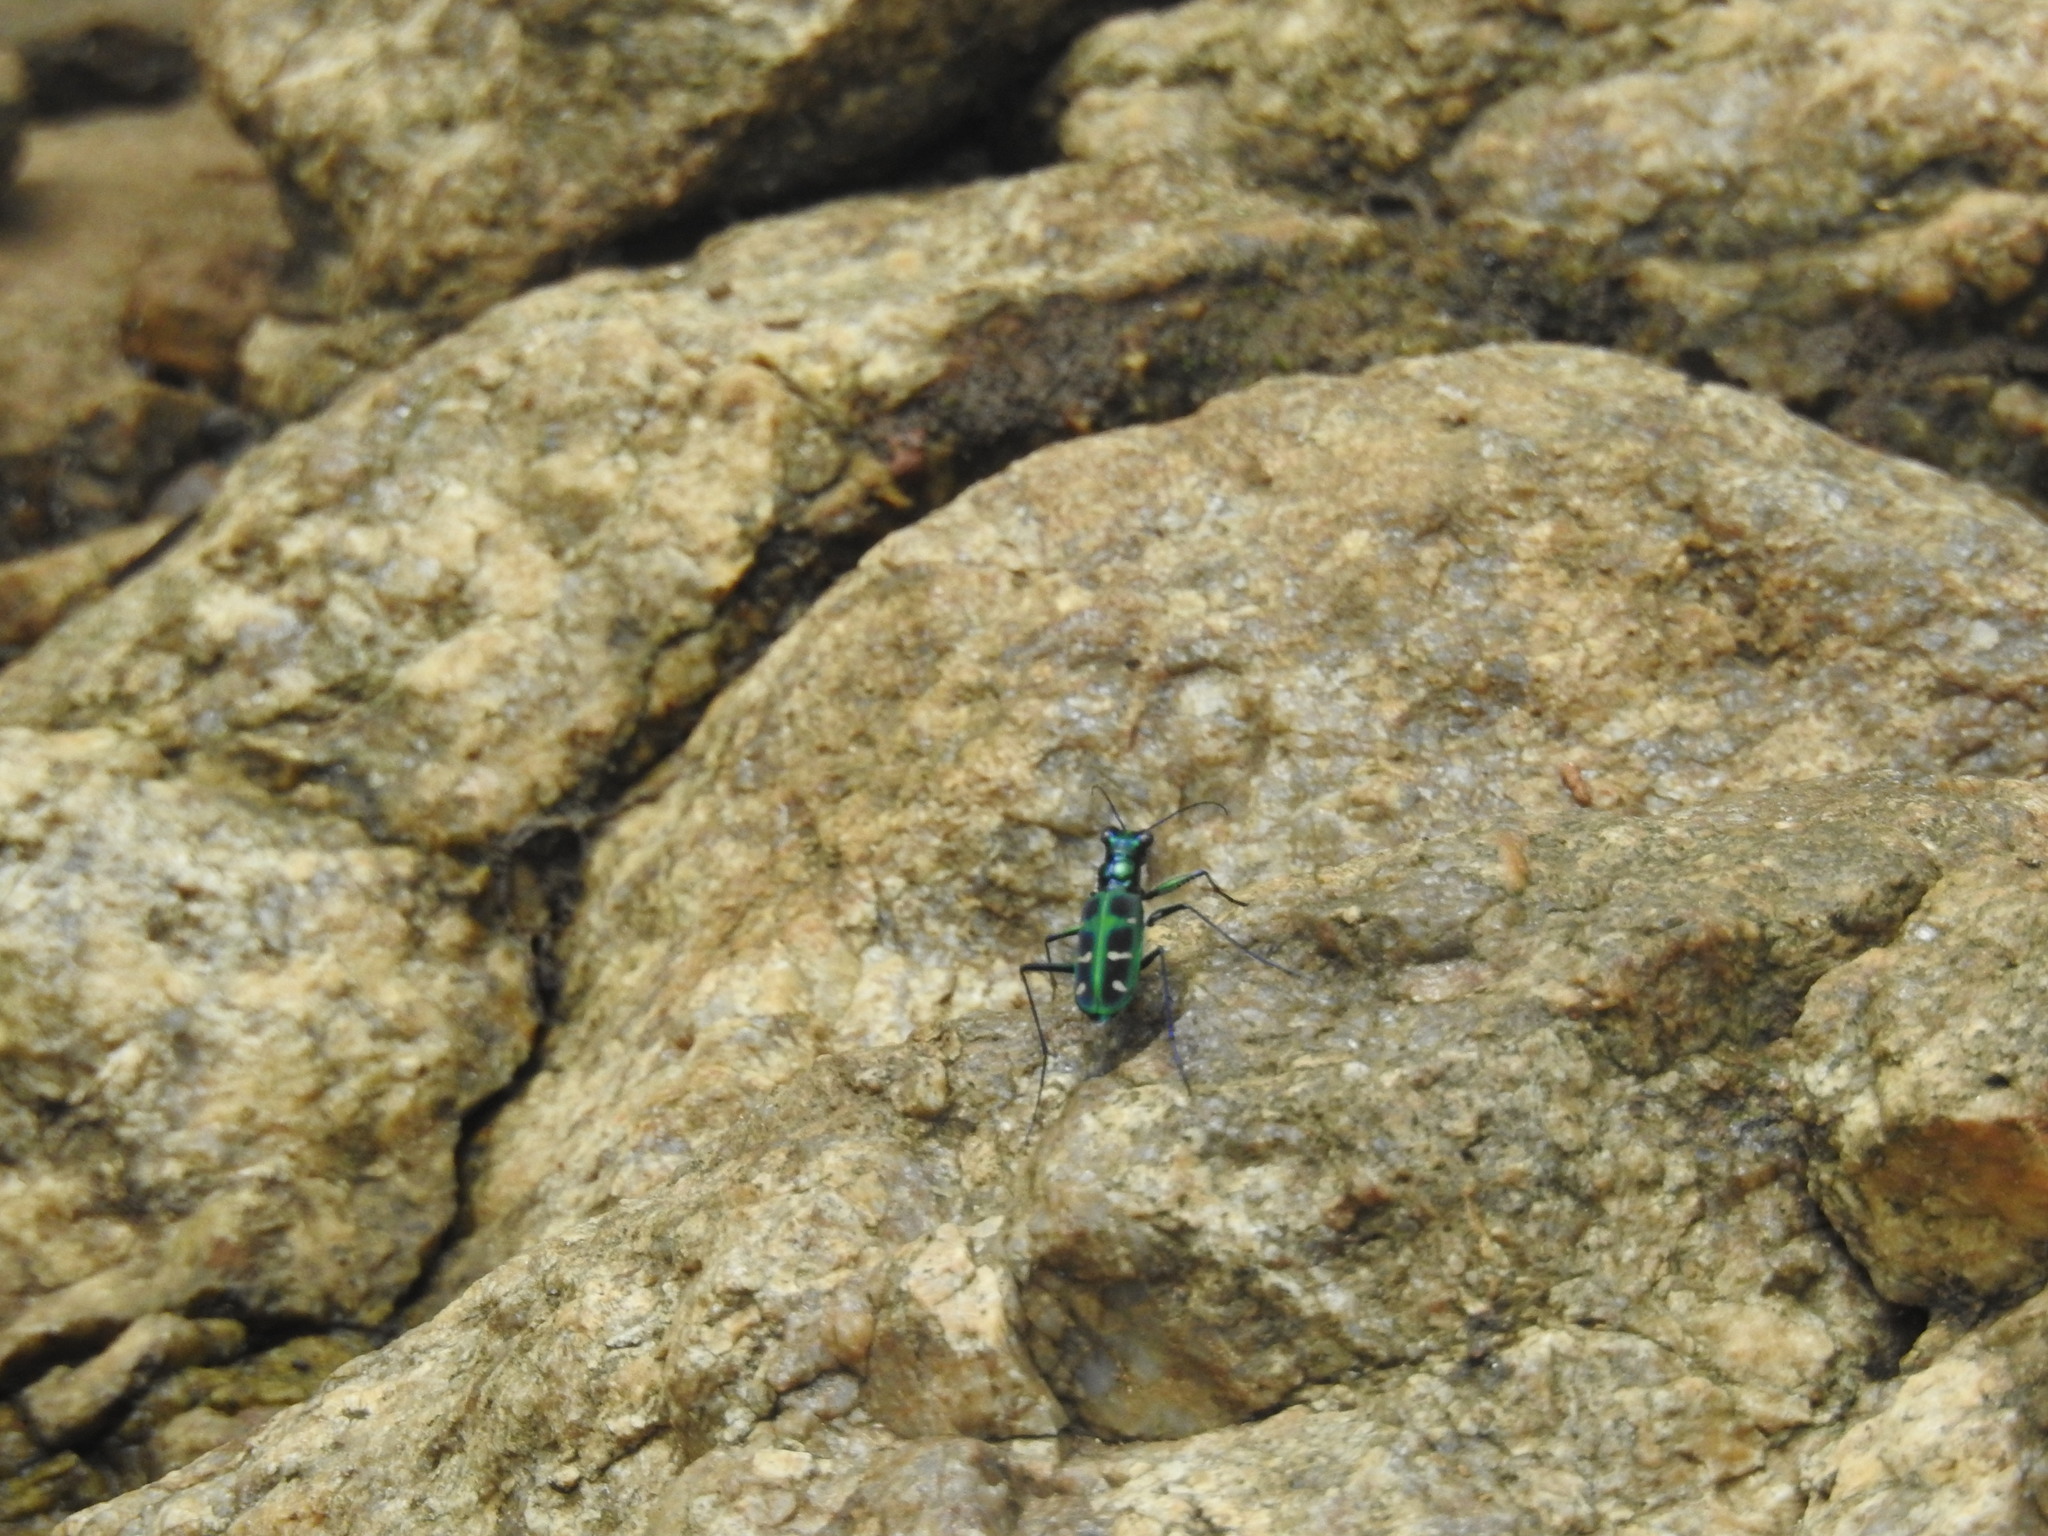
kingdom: Animalia
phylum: Arthropoda
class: Insecta
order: Coleoptera
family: Carabidae
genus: Cicindela
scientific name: Cicindela barmanica
